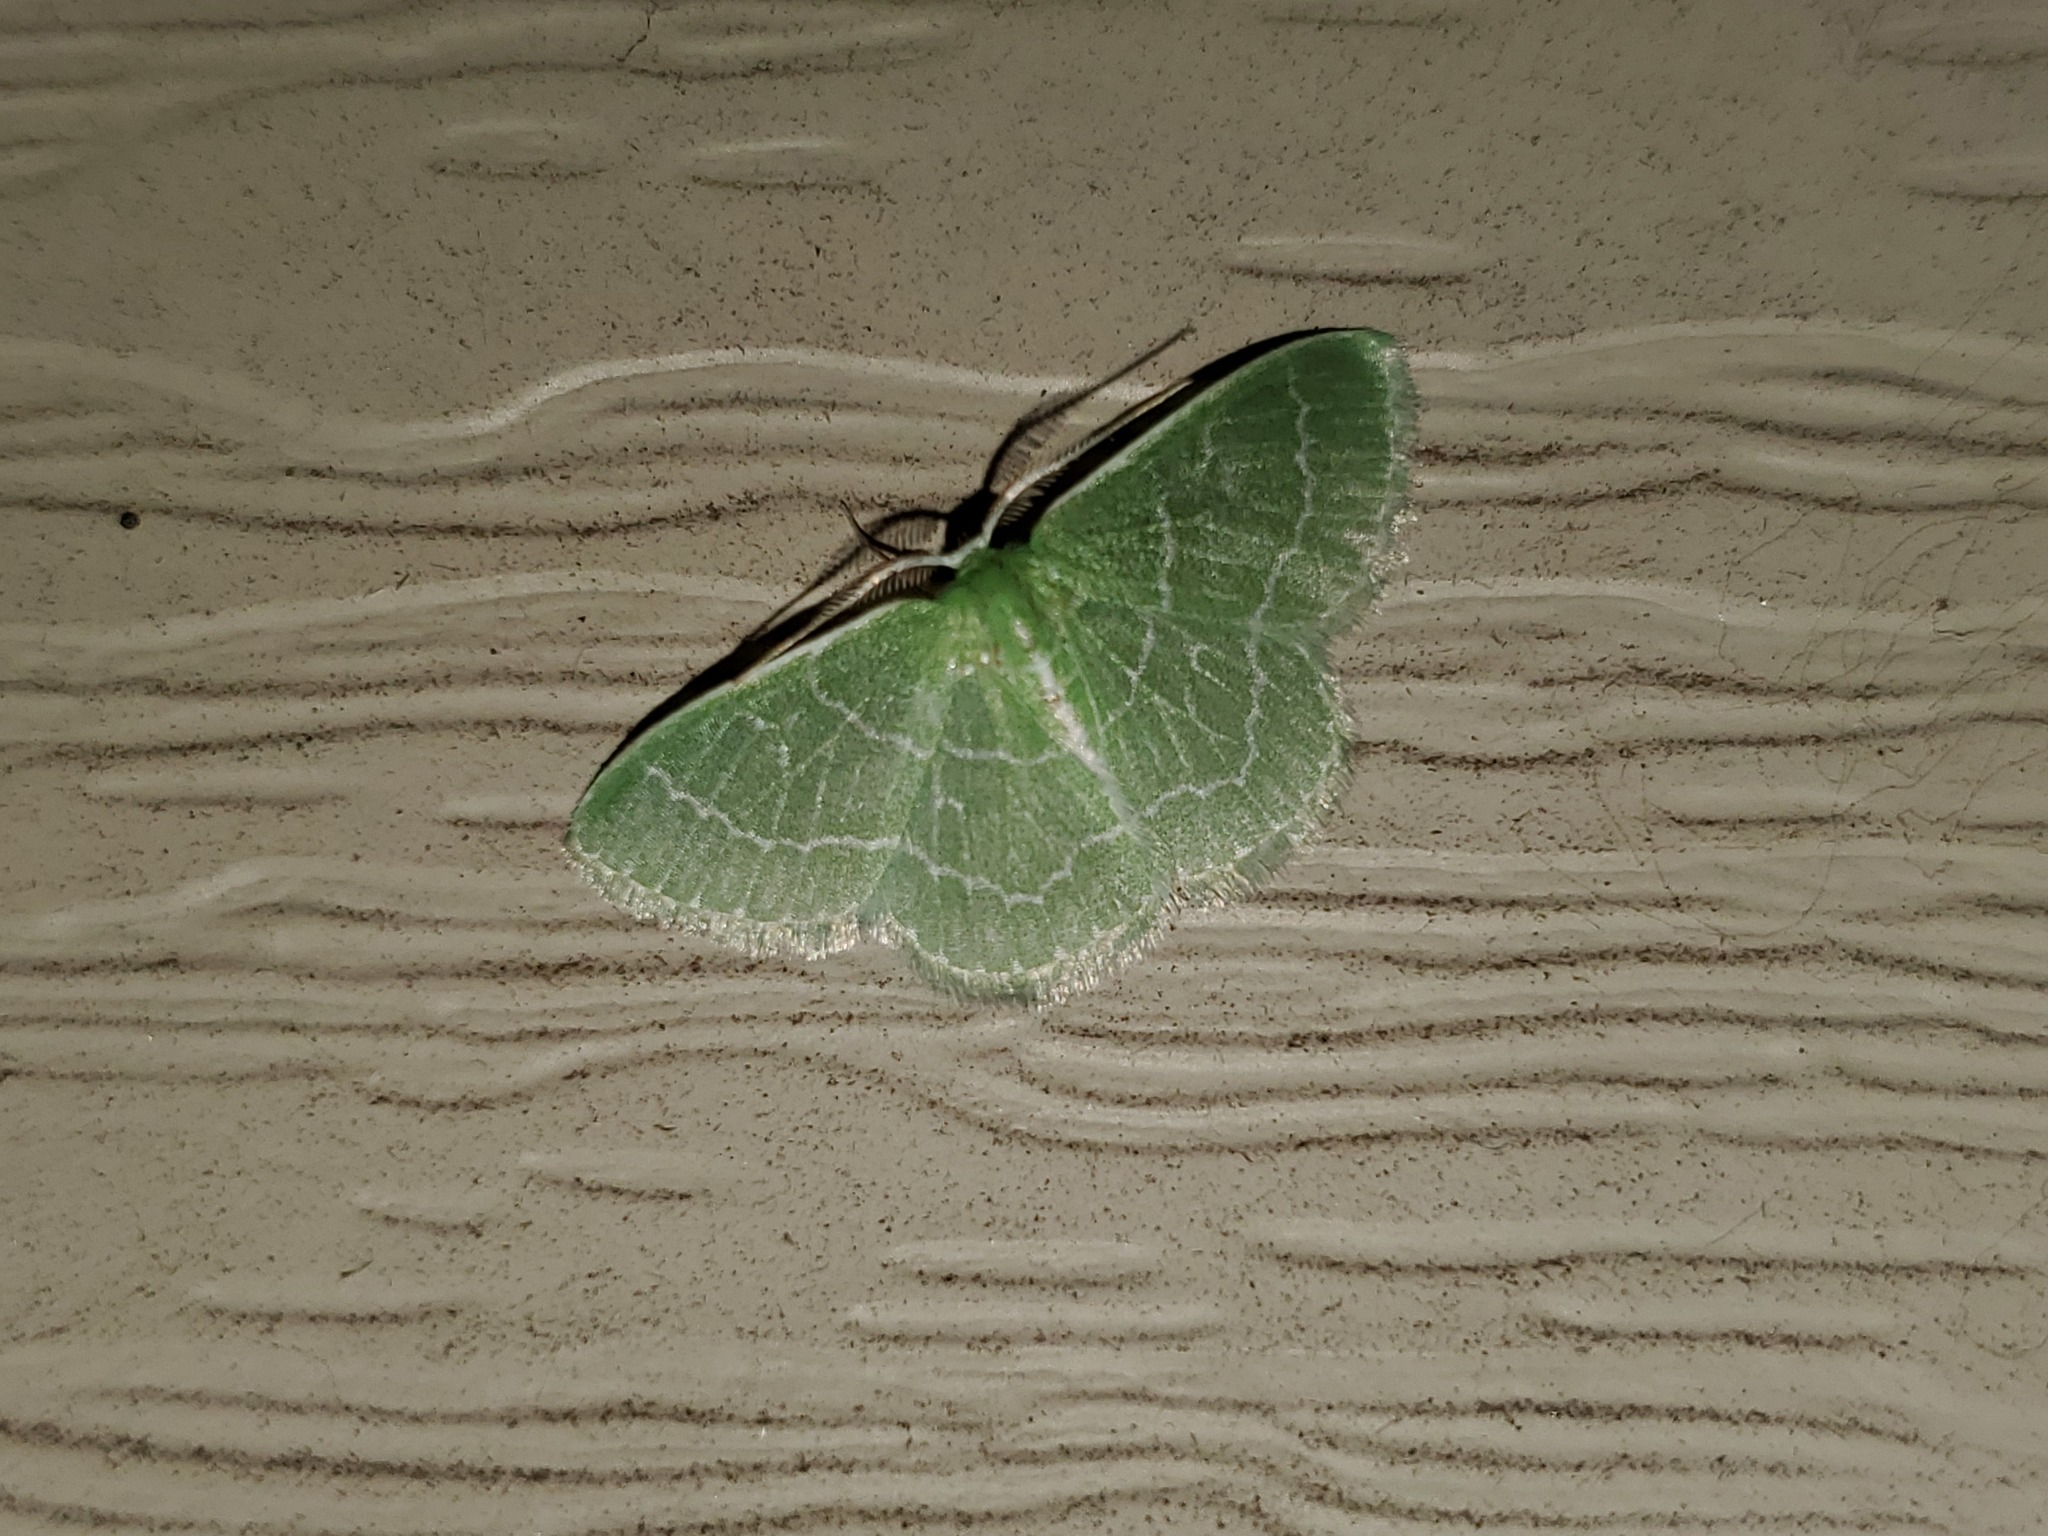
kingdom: Animalia
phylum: Arthropoda
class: Insecta
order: Lepidoptera
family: Geometridae
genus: Synchlora
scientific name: Synchlora aerata
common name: Wavy-lined emerald
